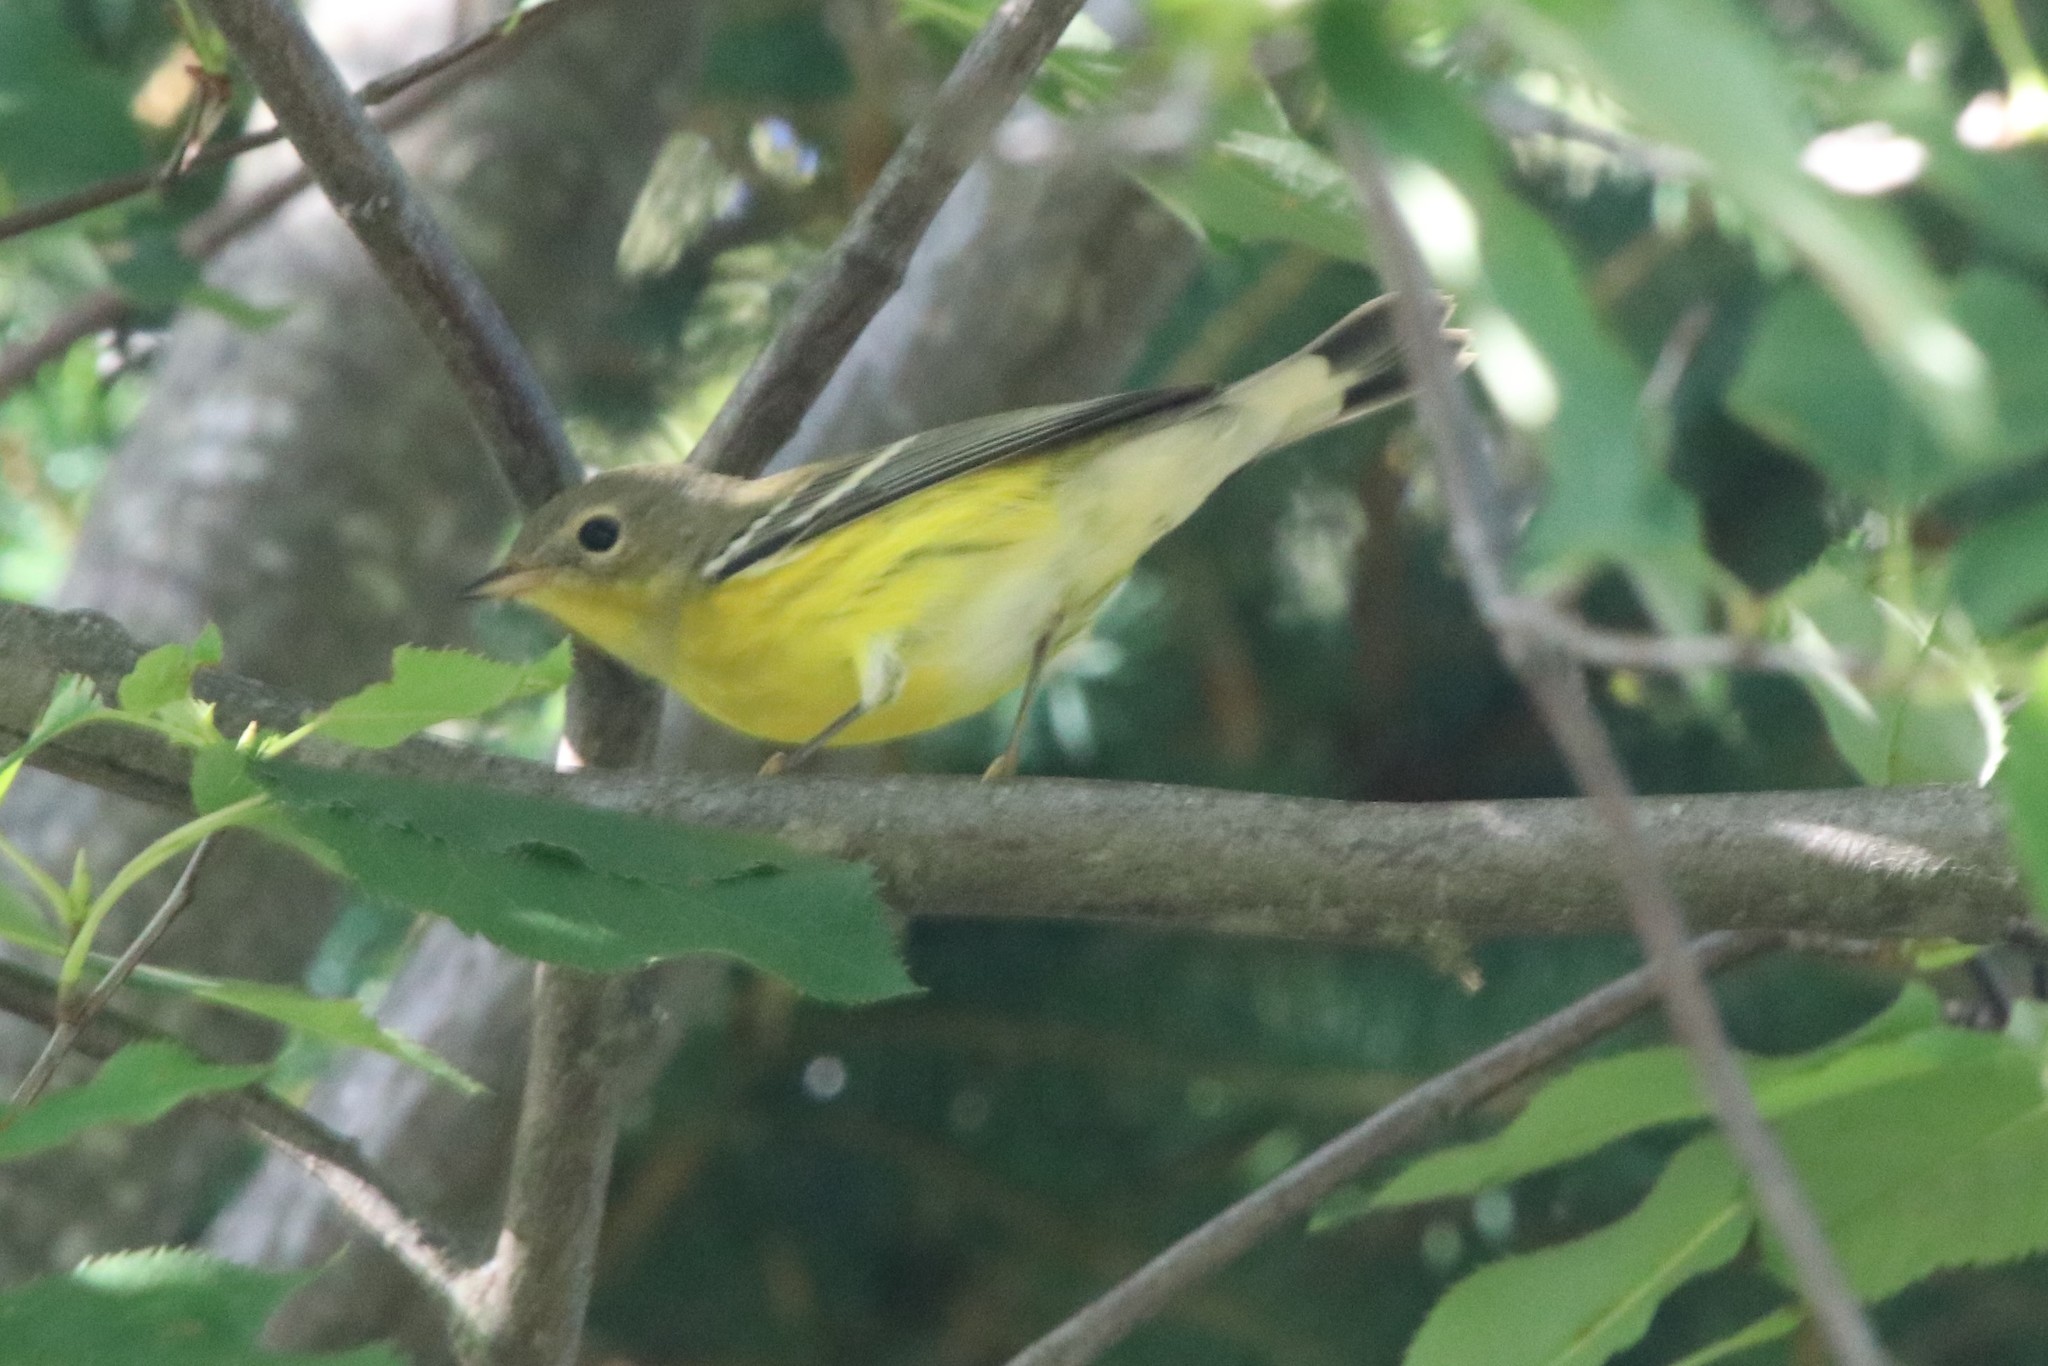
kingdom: Animalia
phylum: Chordata
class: Aves
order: Passeriformes
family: Parulidae
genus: Setophaga
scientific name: Setophaga magnolia
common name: Magnolia warbler
